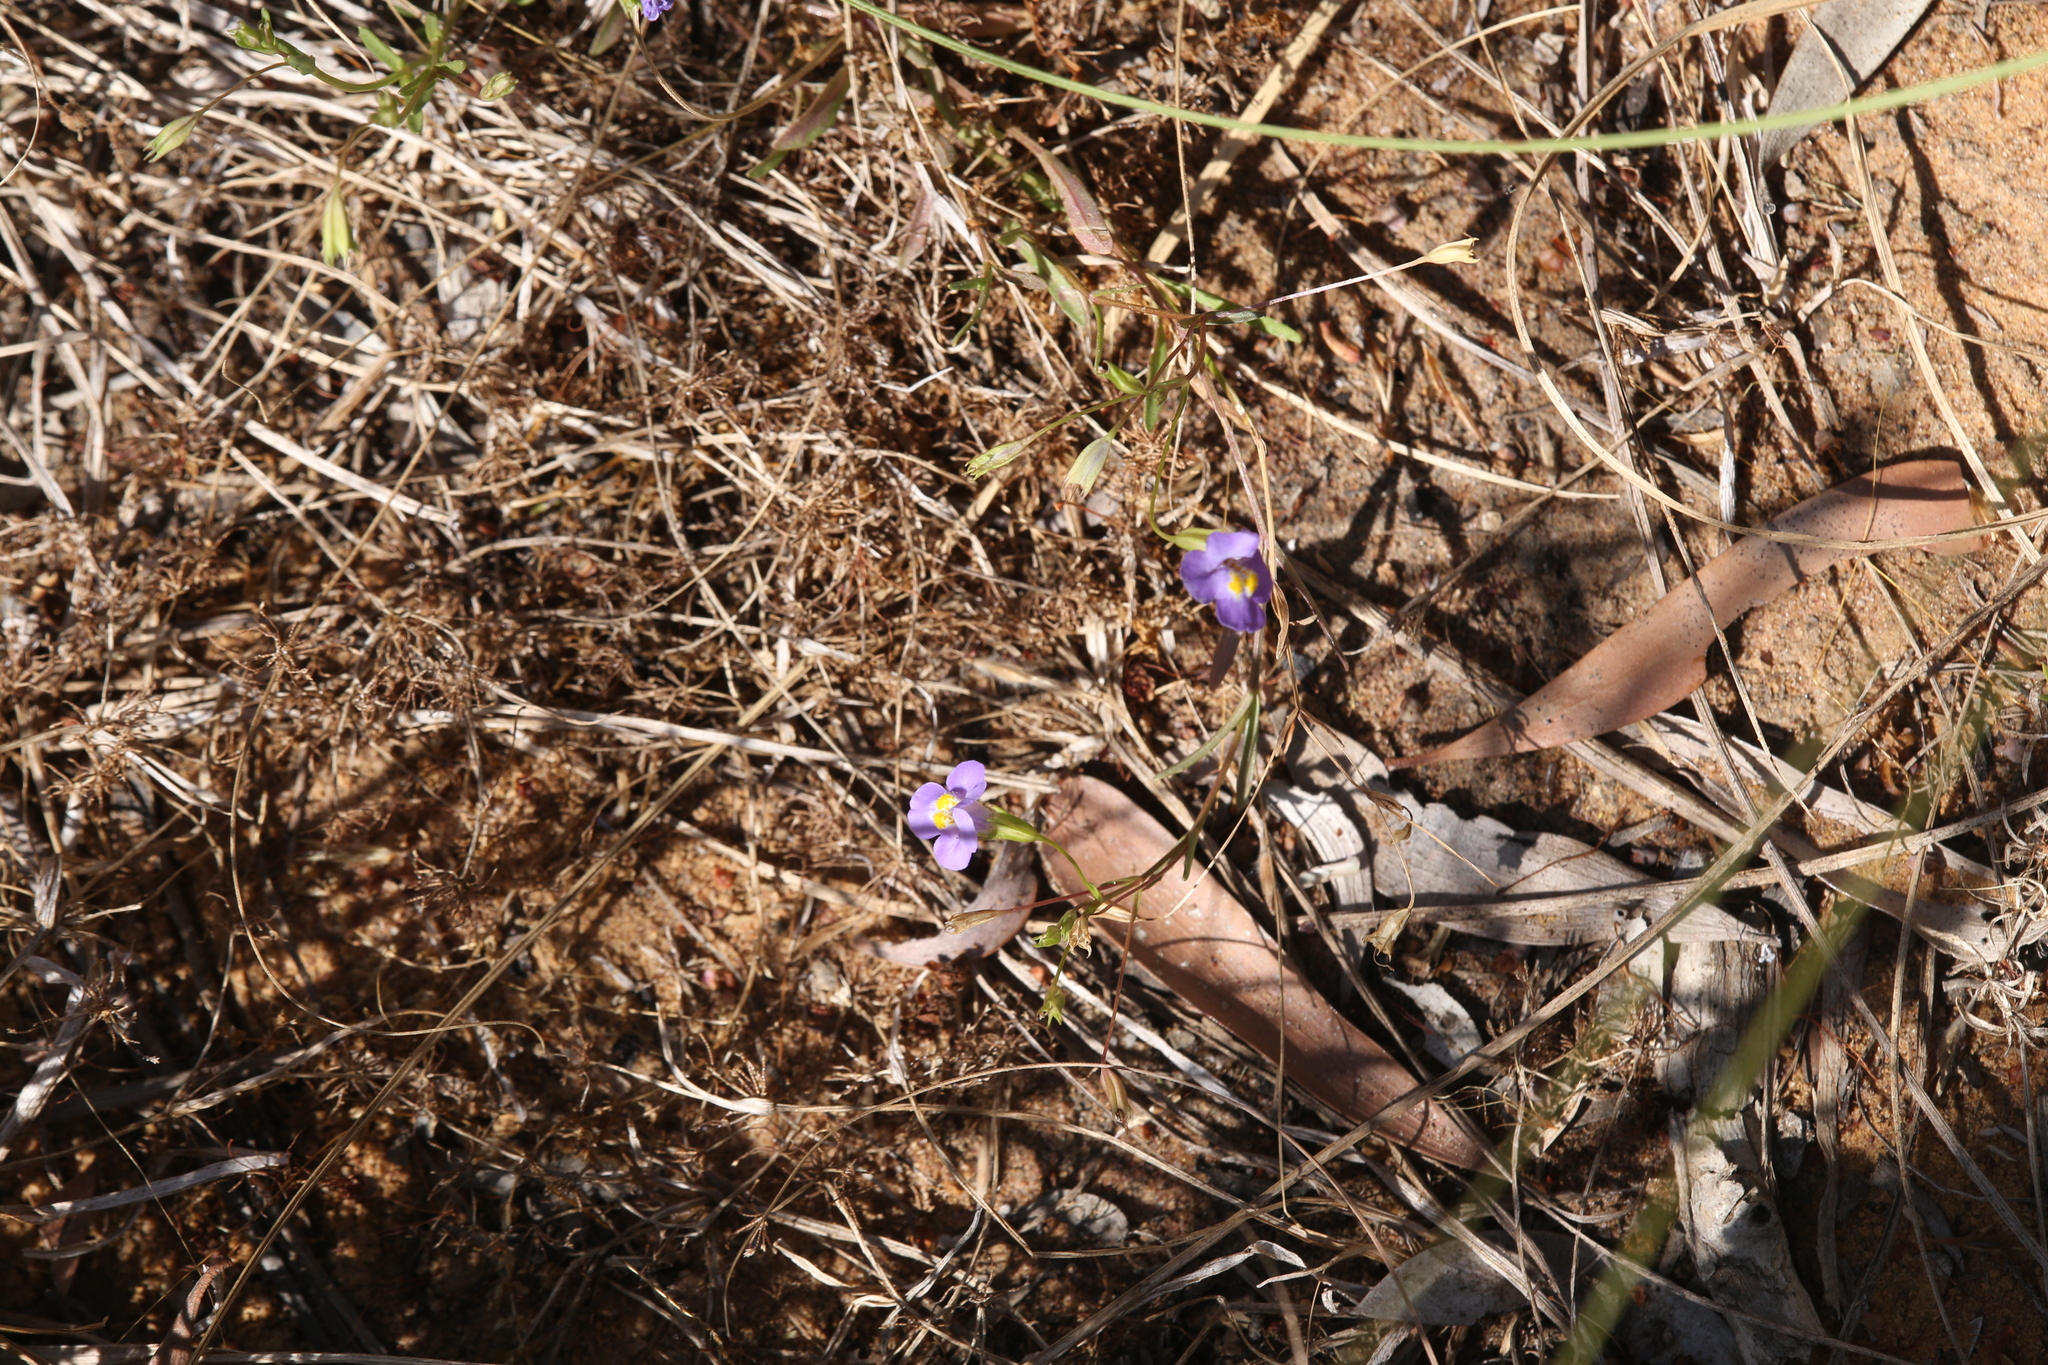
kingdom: Plantae
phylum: Tracheophyta
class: Magnoliopsida
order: Lamiales
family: Phrymaceae
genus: Uvedalia
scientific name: Uvedalia linearis
